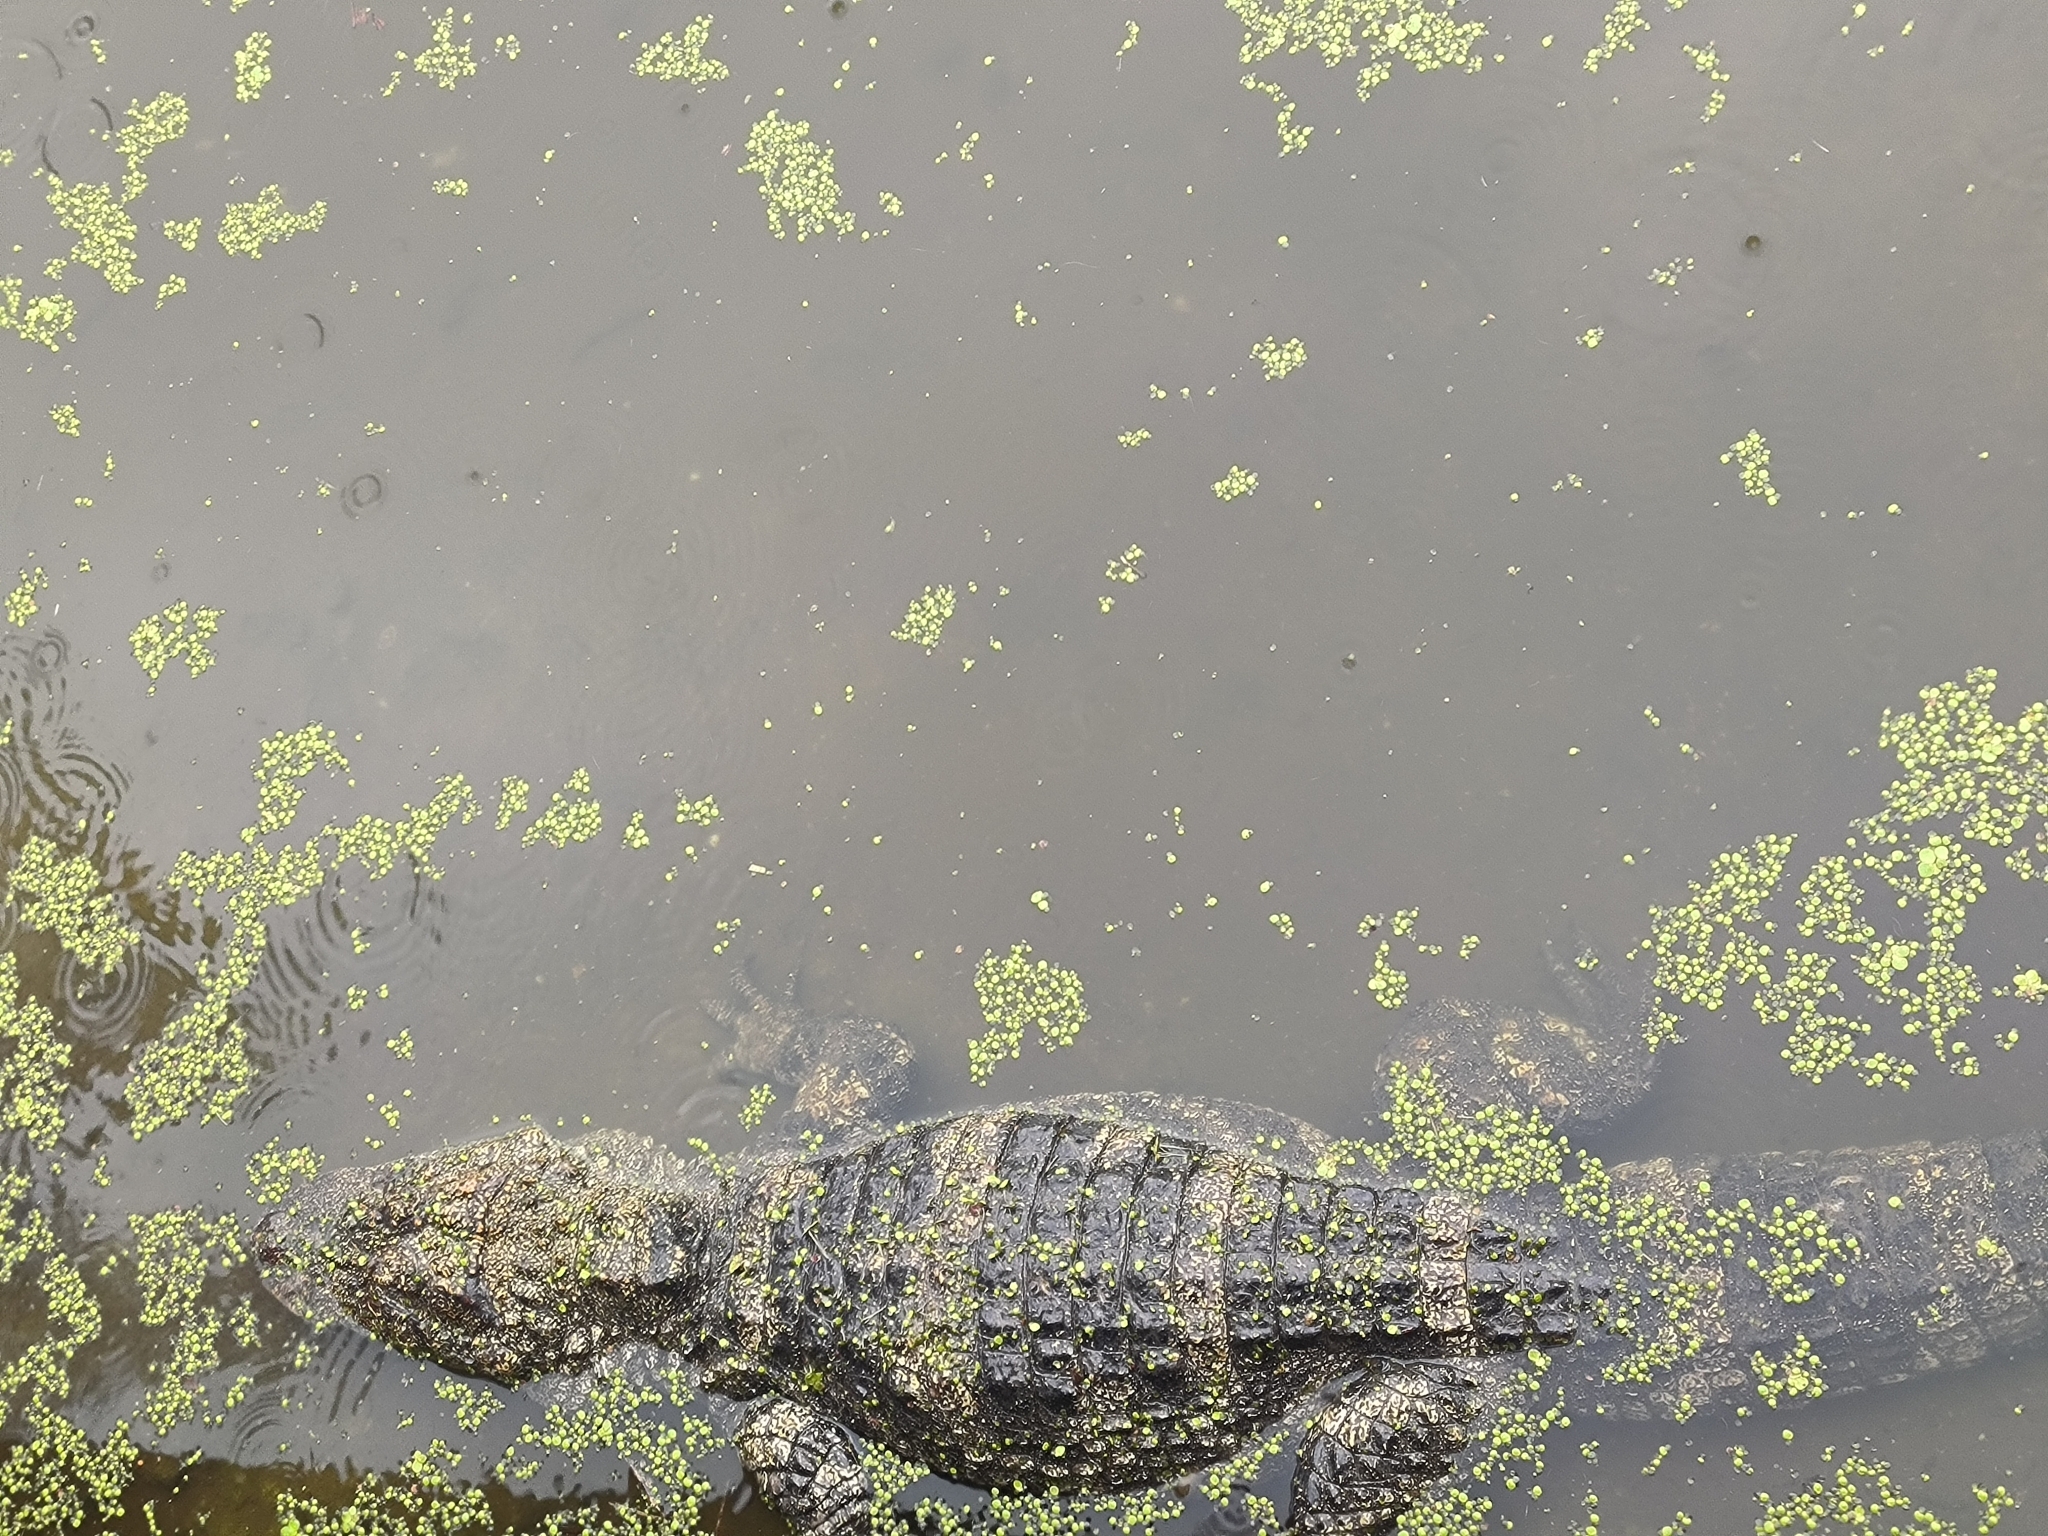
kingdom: Animalia
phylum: Chordata
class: Crocodylia
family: Alligatoridae
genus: Alligator
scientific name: Alligator sinensis
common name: Chinese alligator
